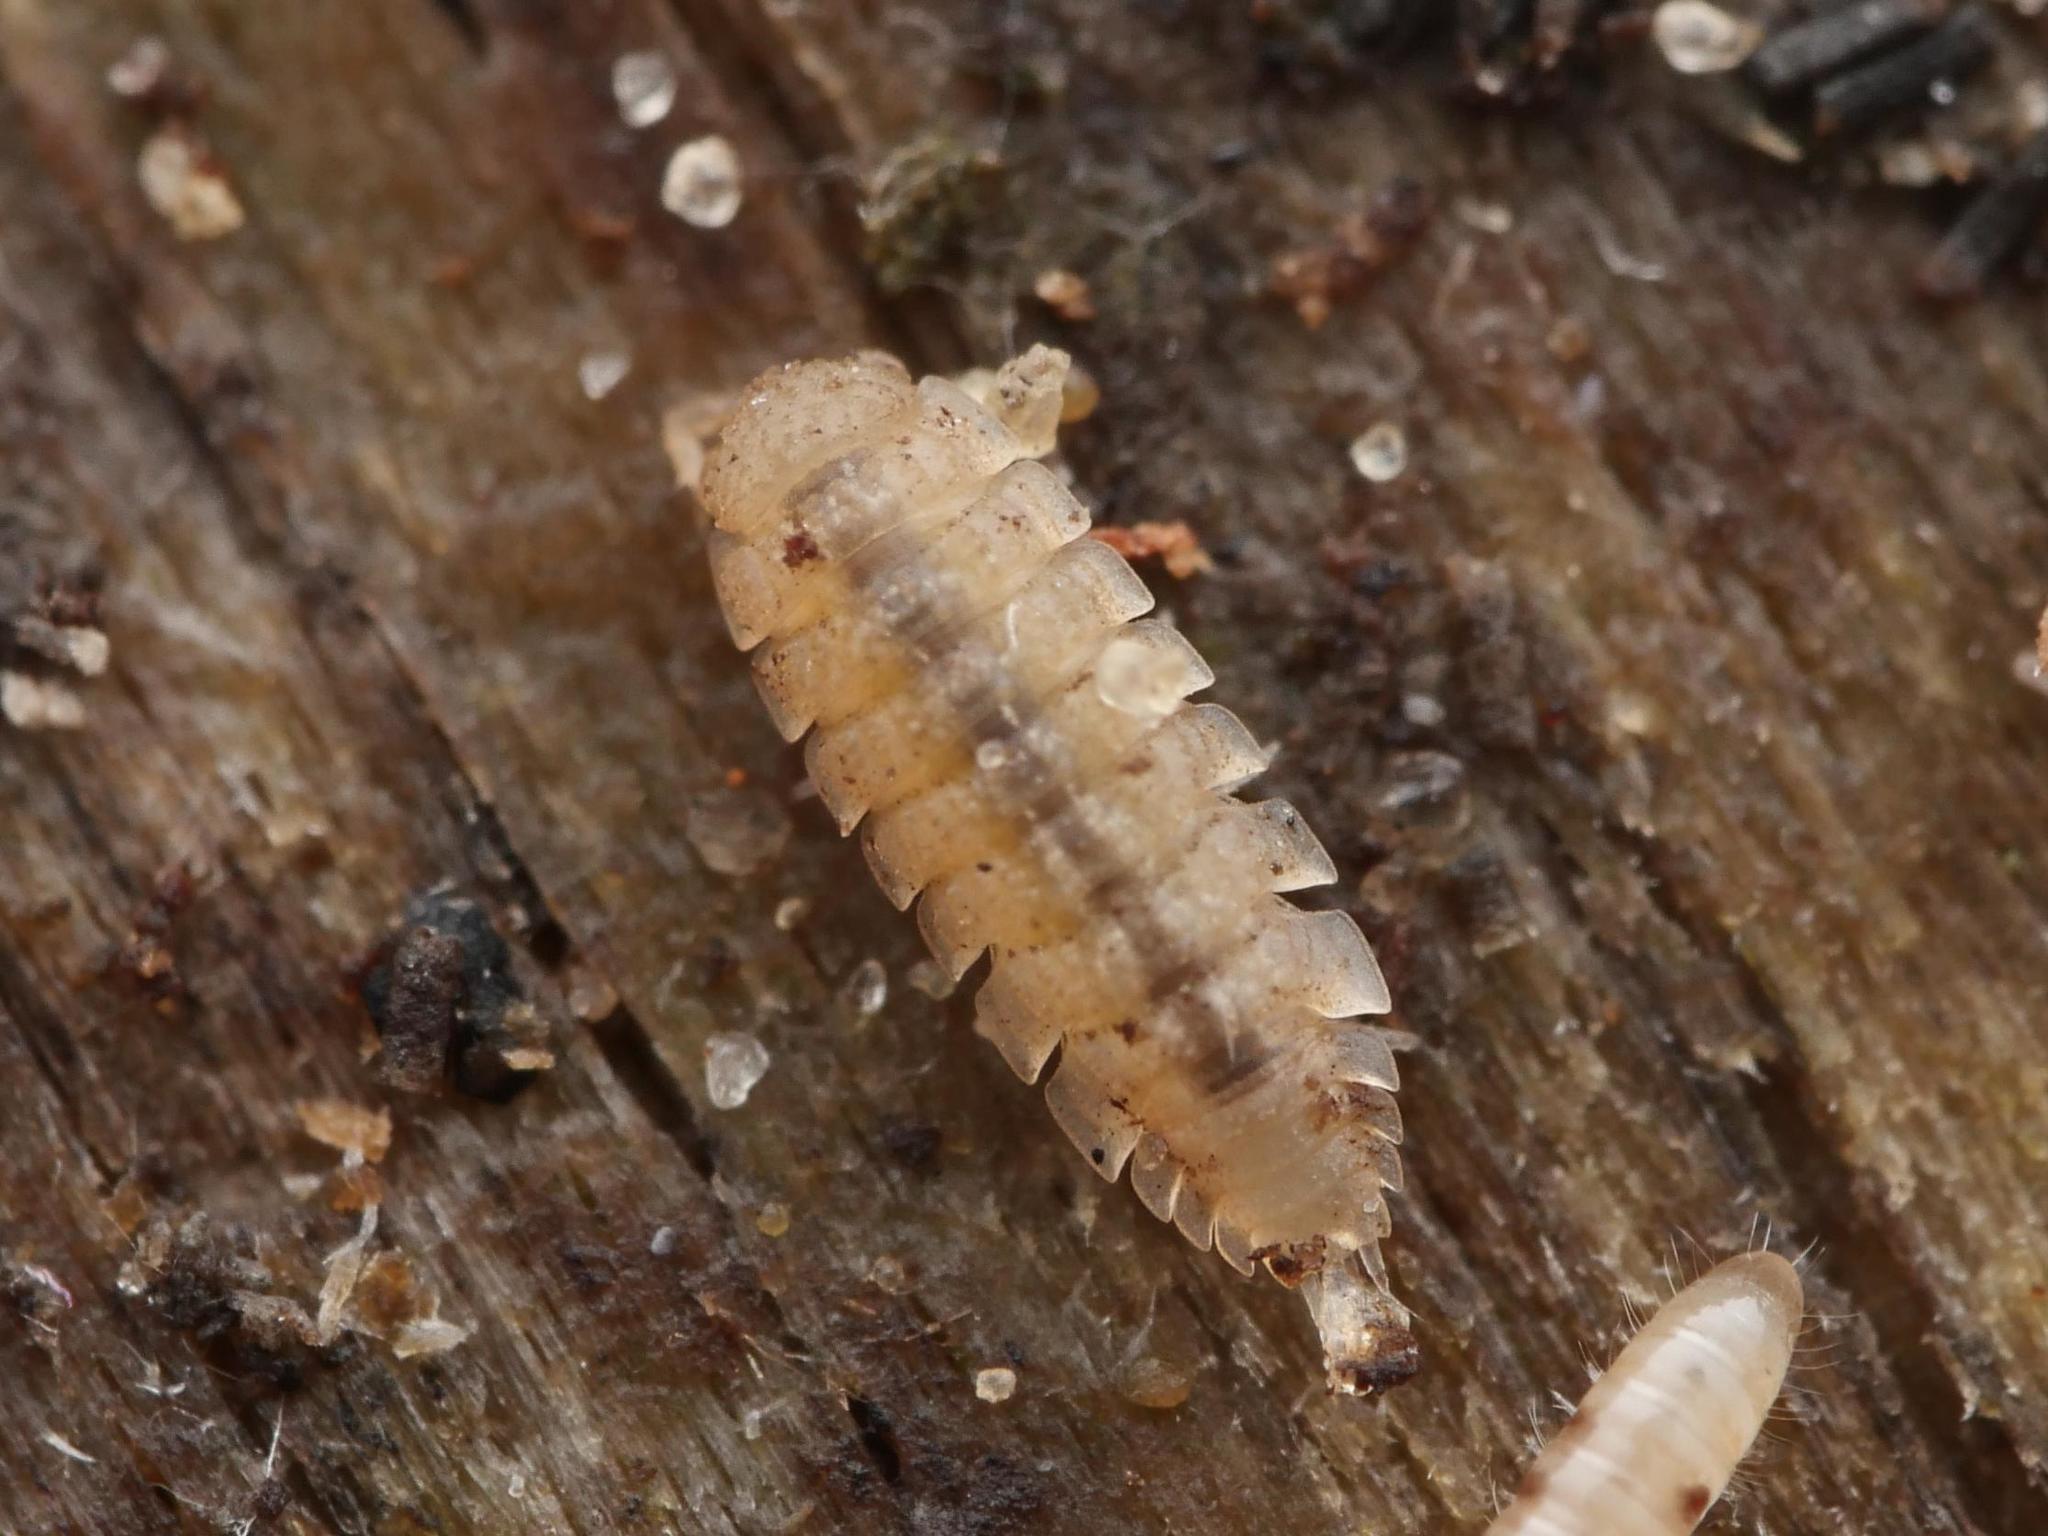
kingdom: Animalia
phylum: Arthropoda
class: Malacostraca
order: Isopoda
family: Trichoniscidae
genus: Haplophthalmus
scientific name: Haplophthalmus danicus
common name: Pillbug
